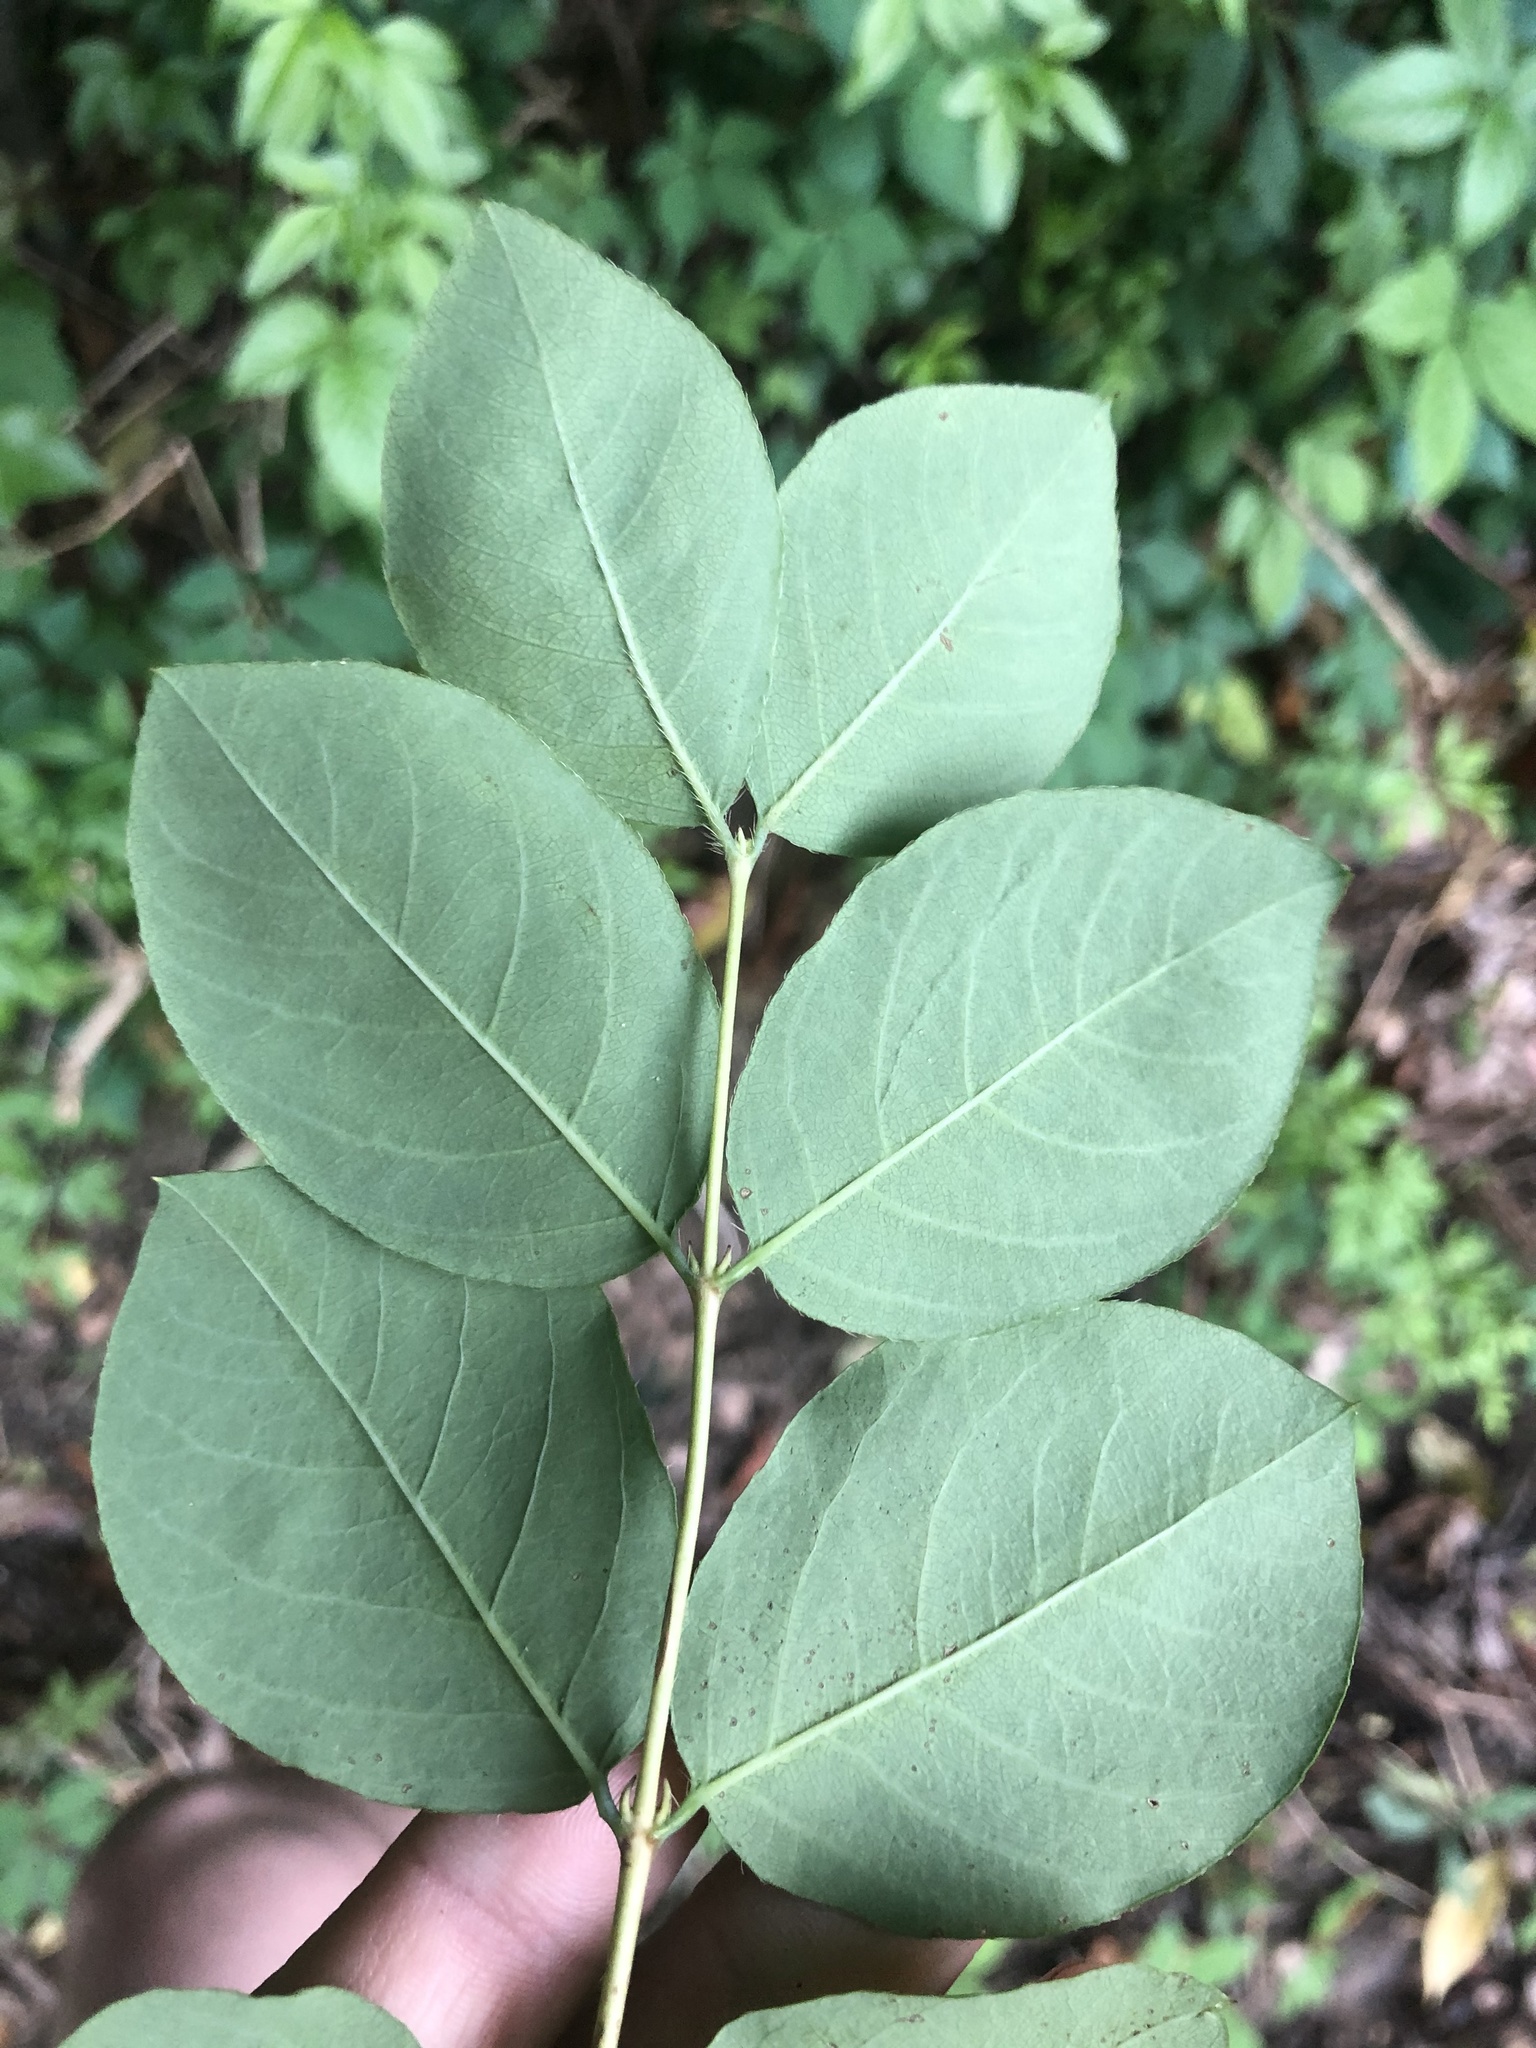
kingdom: Plantae
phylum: Tracheophyta
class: Magnoliopsida
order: Dipsacales
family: Caprifoliaceae
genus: Lonicera
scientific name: Lonicera fragrantissima
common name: Fragrant honeysuckle
